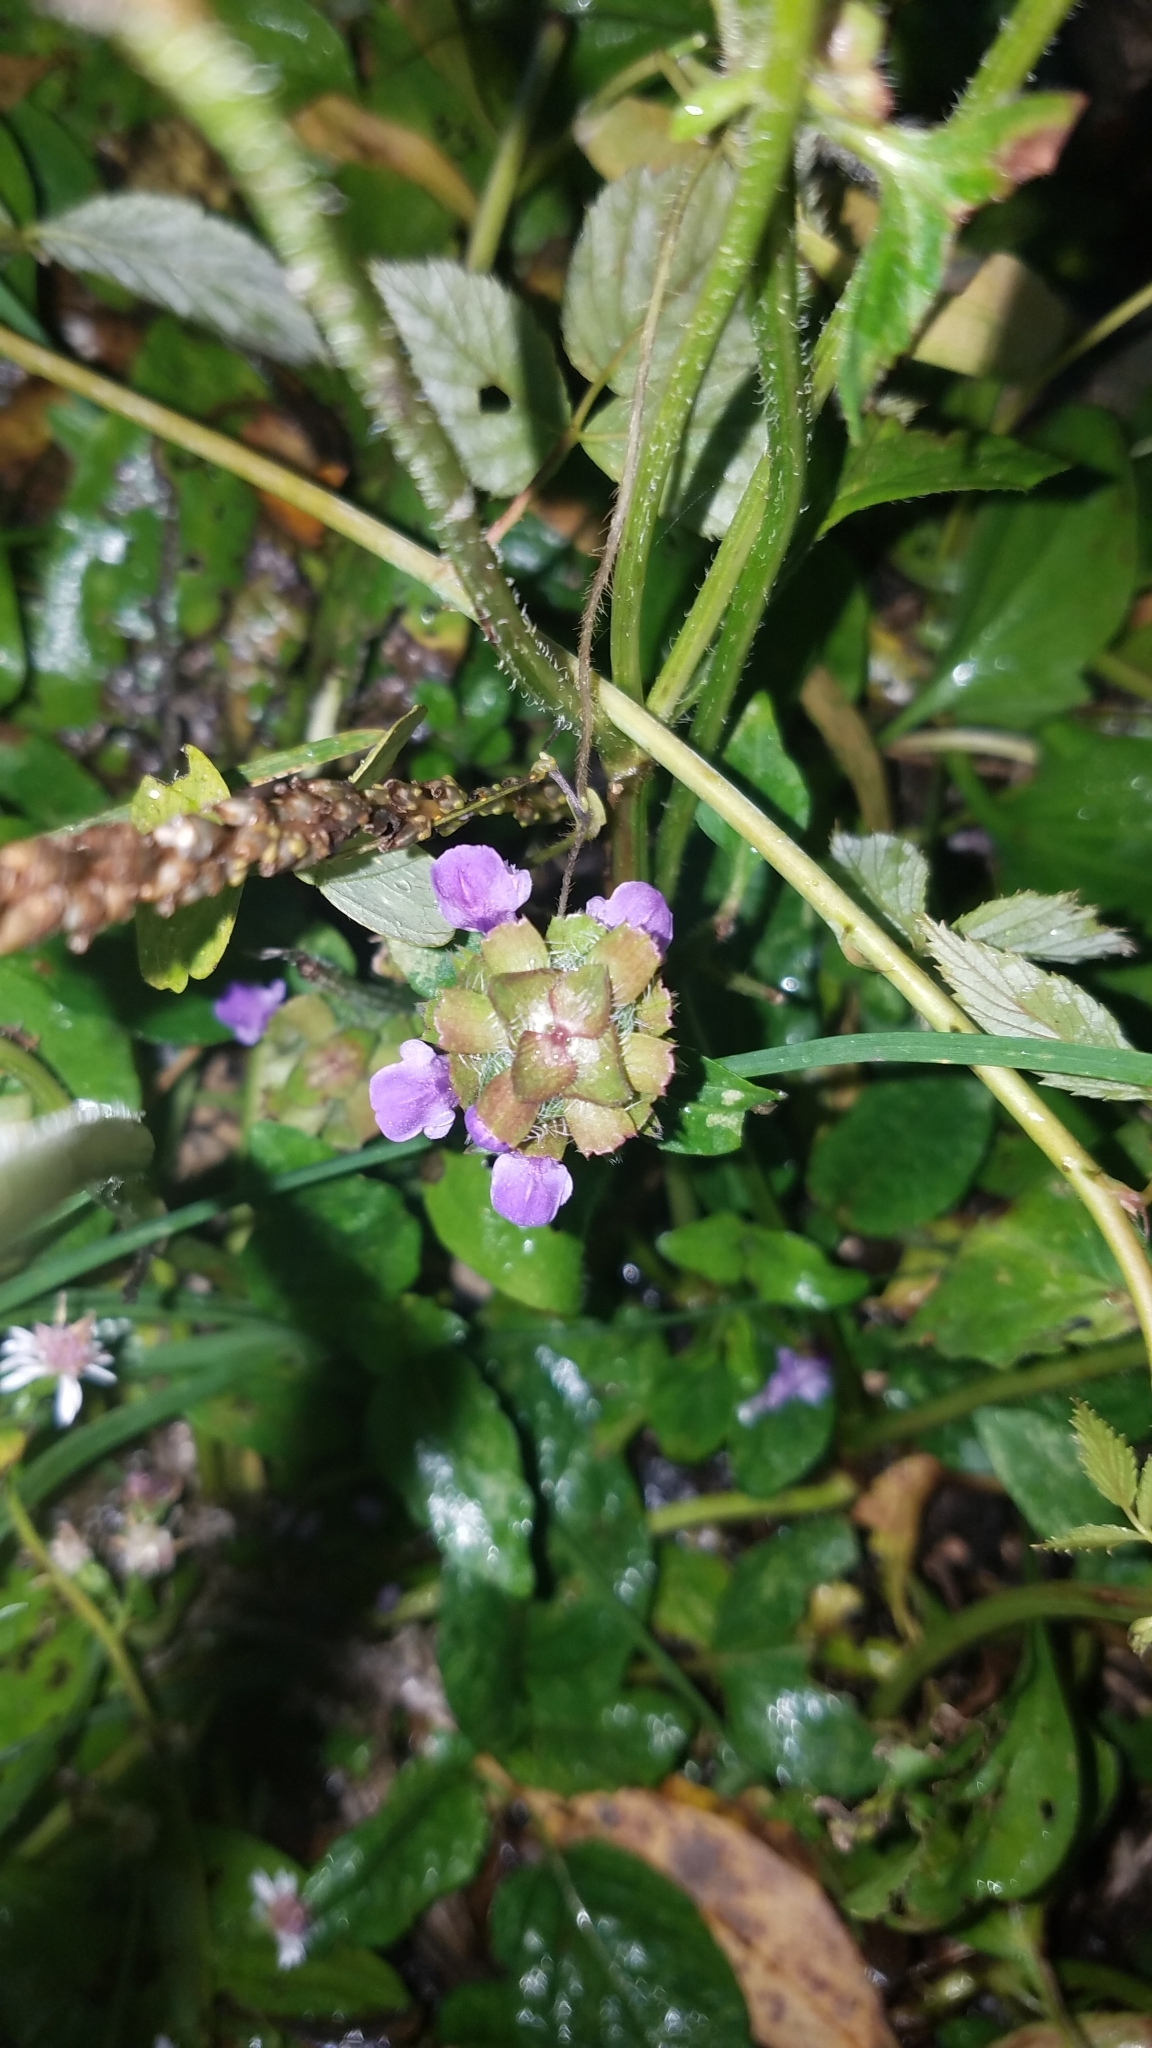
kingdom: Plantae
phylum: Tracheophyta
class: Magnoliopsida
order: Lamiales
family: Lamiaceae
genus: Prunella
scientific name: Prunella vulgaris
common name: Heal-all
